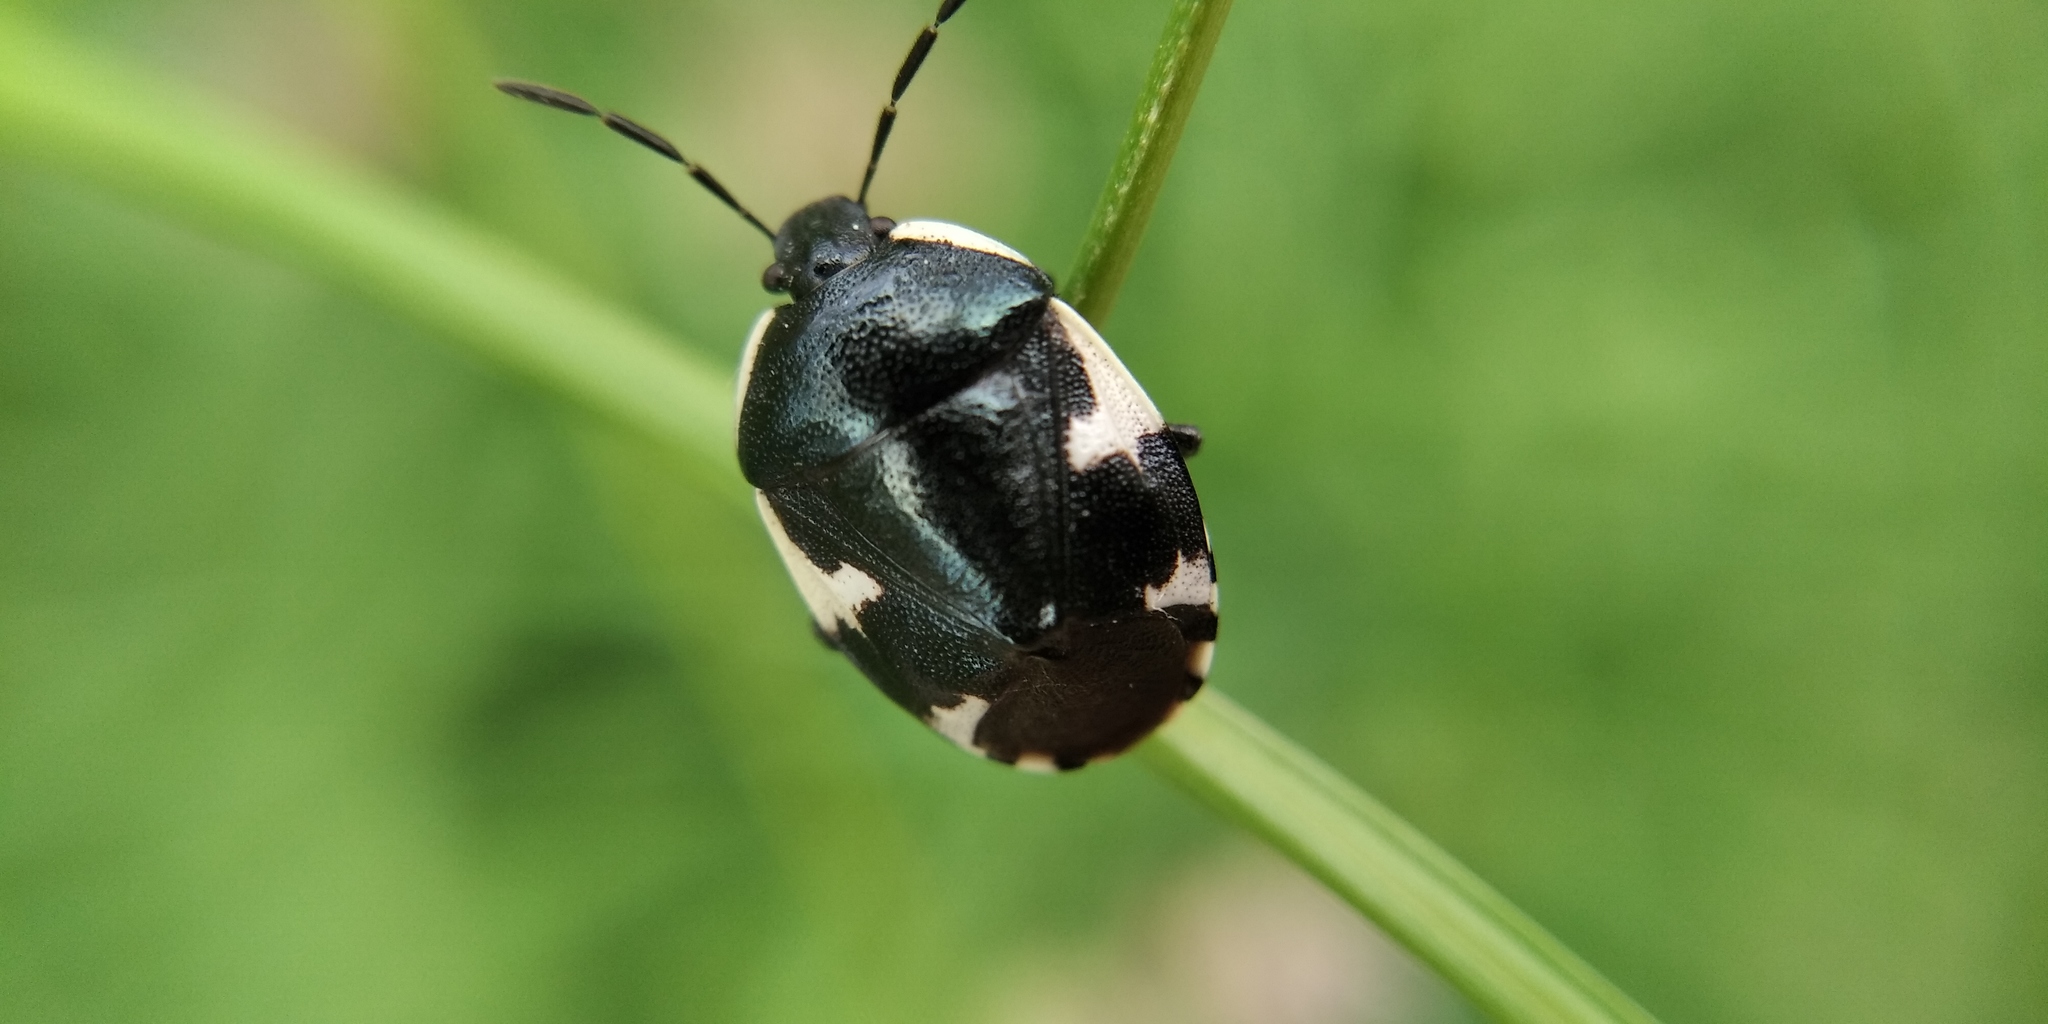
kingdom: Animalia
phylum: Arthropoda
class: Insecta
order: Hemiptera
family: Cydnidae
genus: Tritomegas
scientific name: Tritomegas sexmaculatus
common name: Rambur's pied shieldbug
